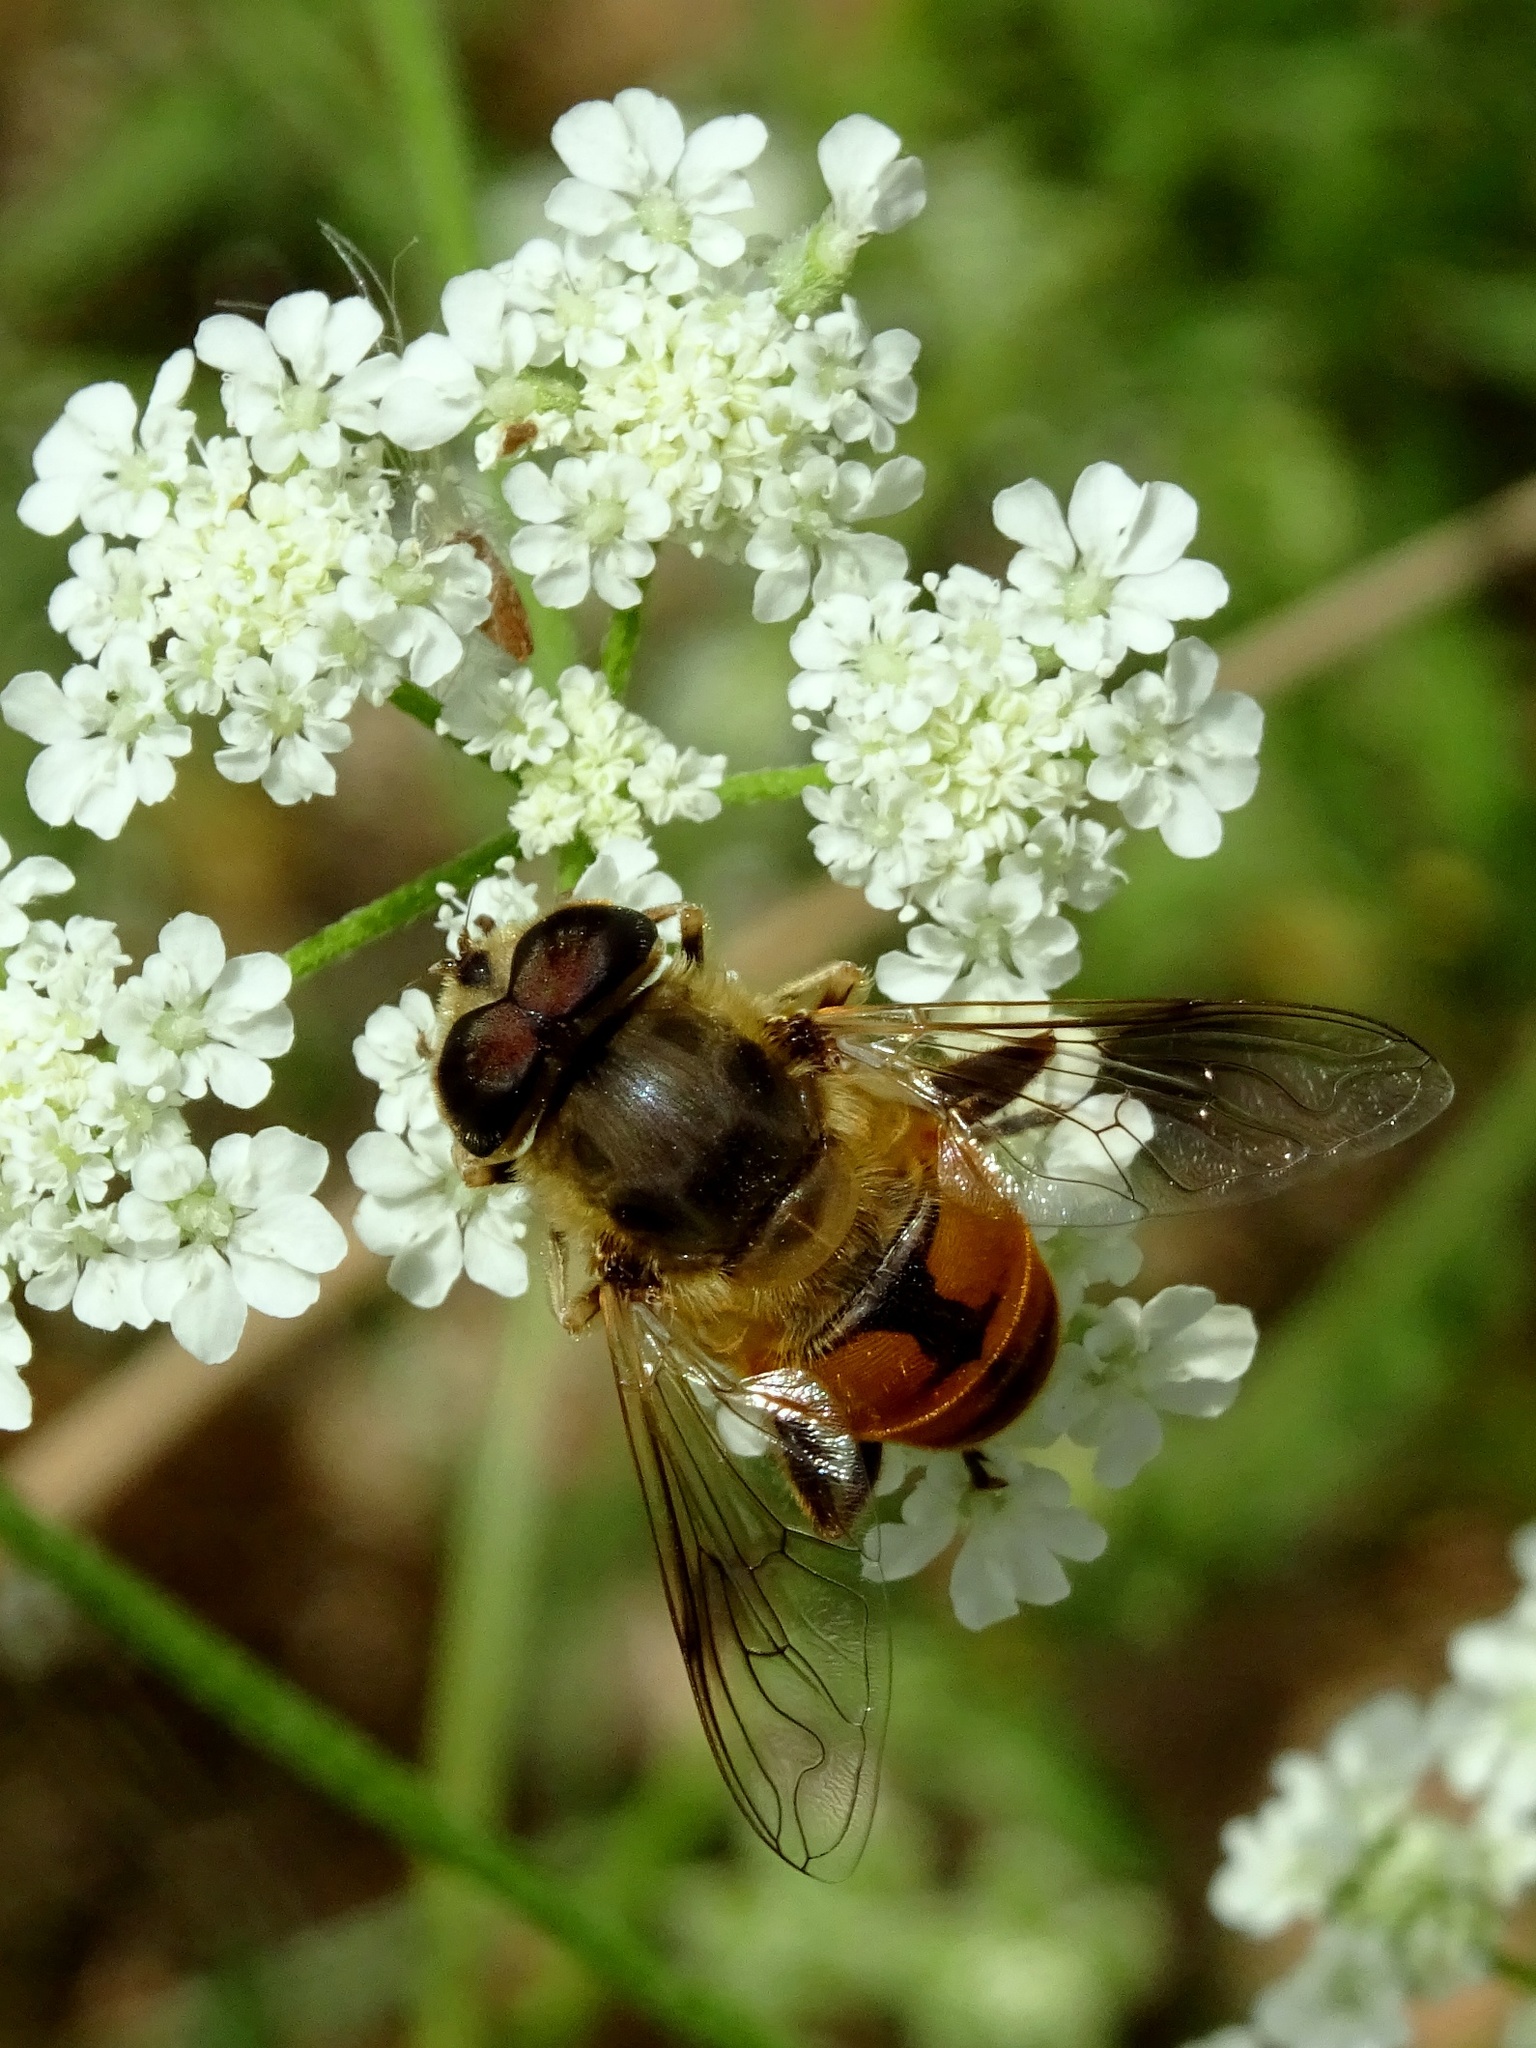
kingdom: Animalia
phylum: Arthropoda
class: Insecta
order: Diptera
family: Syrphidae
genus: Eristalis
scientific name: Eristalis tenax
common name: Drone fly
